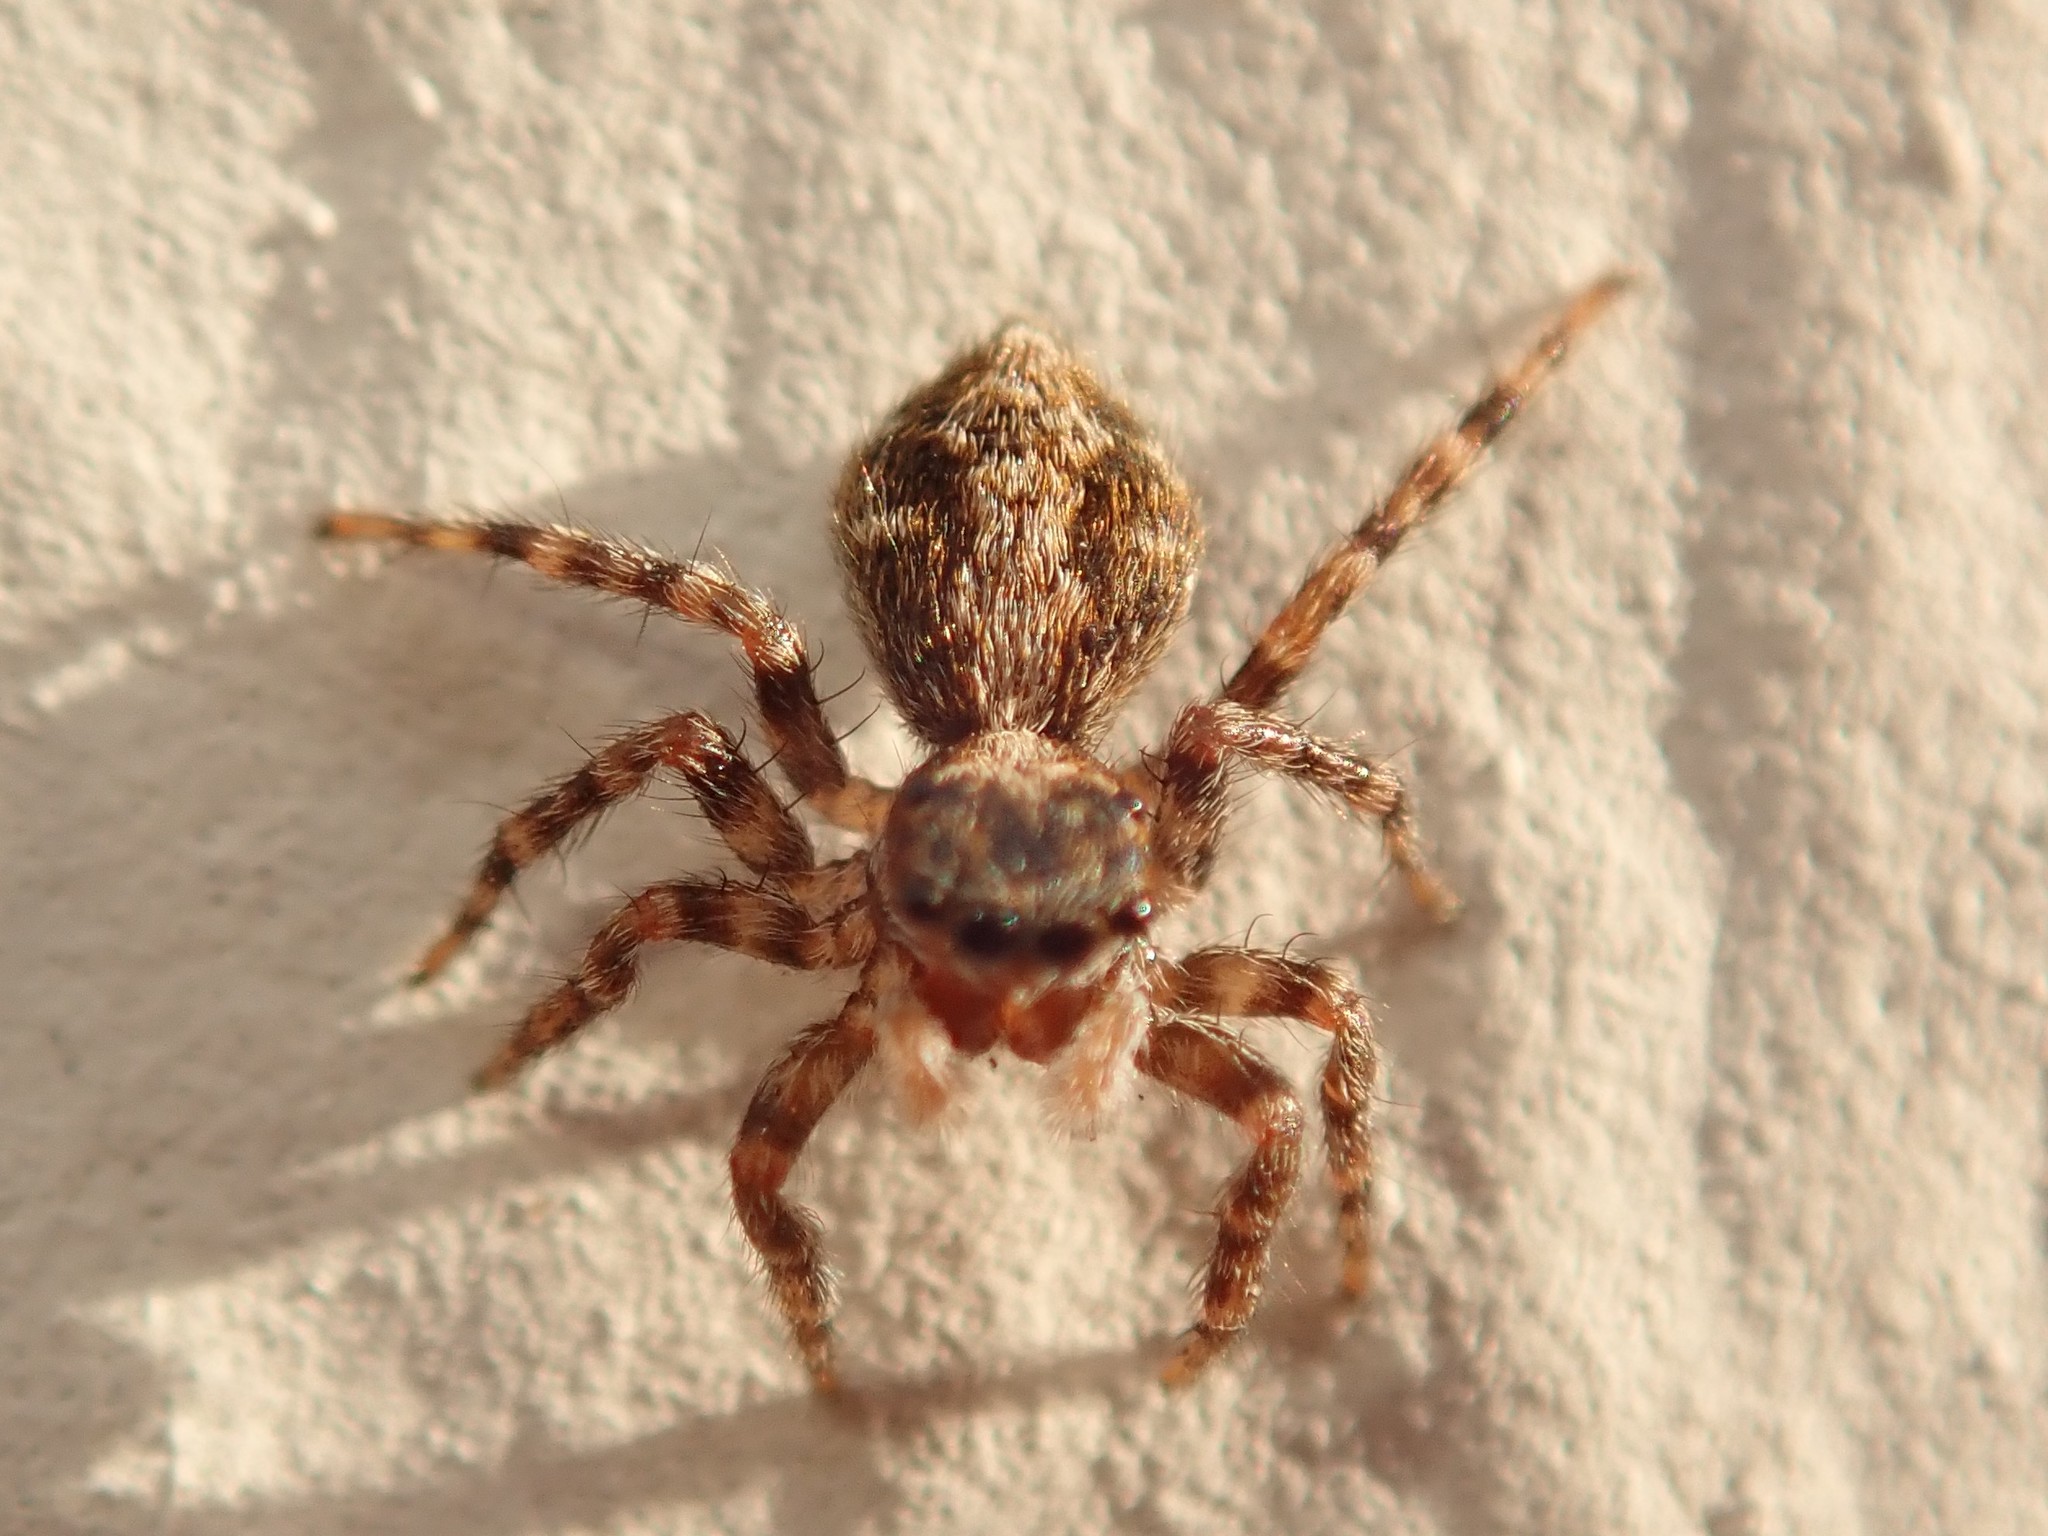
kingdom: Animalia
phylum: Arthropoda
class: Arachnida
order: Araneae
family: Salticidae
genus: Pseudeuophrys
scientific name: Pseudeuophrys lanigera
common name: Jumping spider
